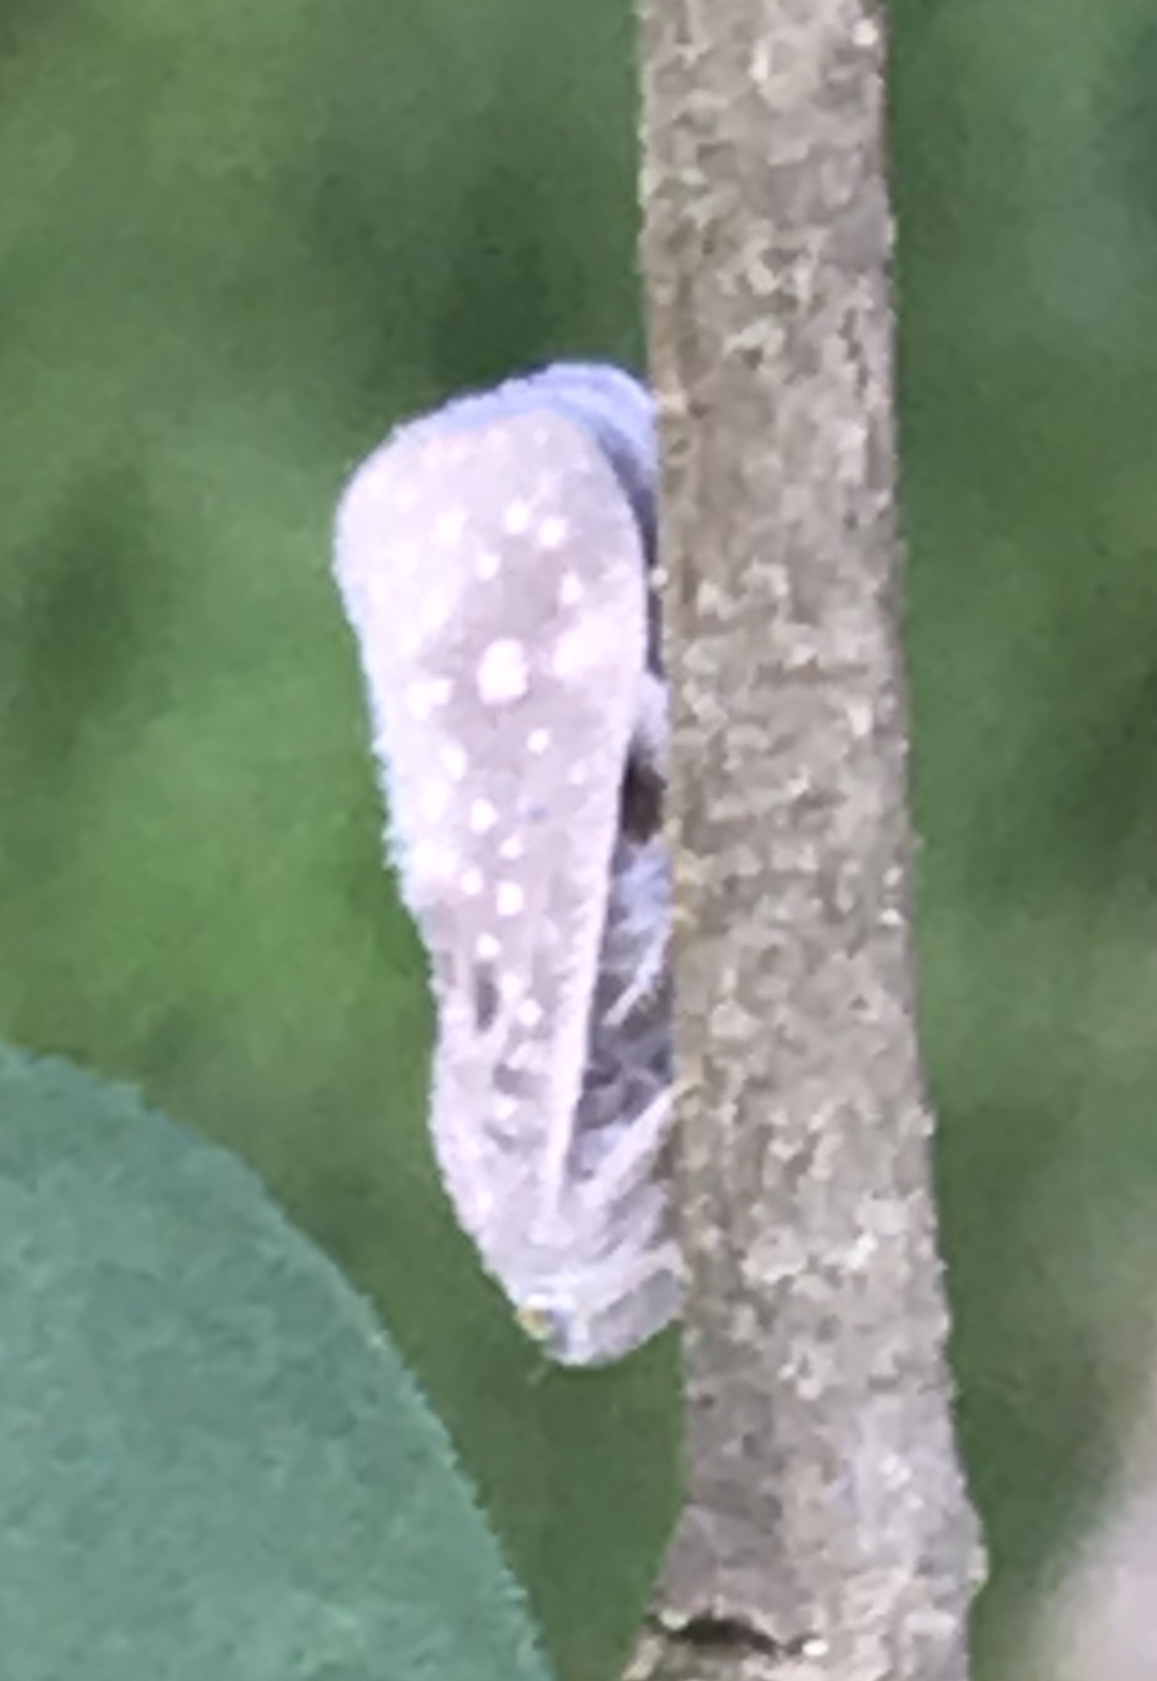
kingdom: Animalia
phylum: Arthropoda
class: Insecta
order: Hemiptera
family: Flatidae
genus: Metcalfa
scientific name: Metcalfa pruinosa
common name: Citrus flatid planthopper
